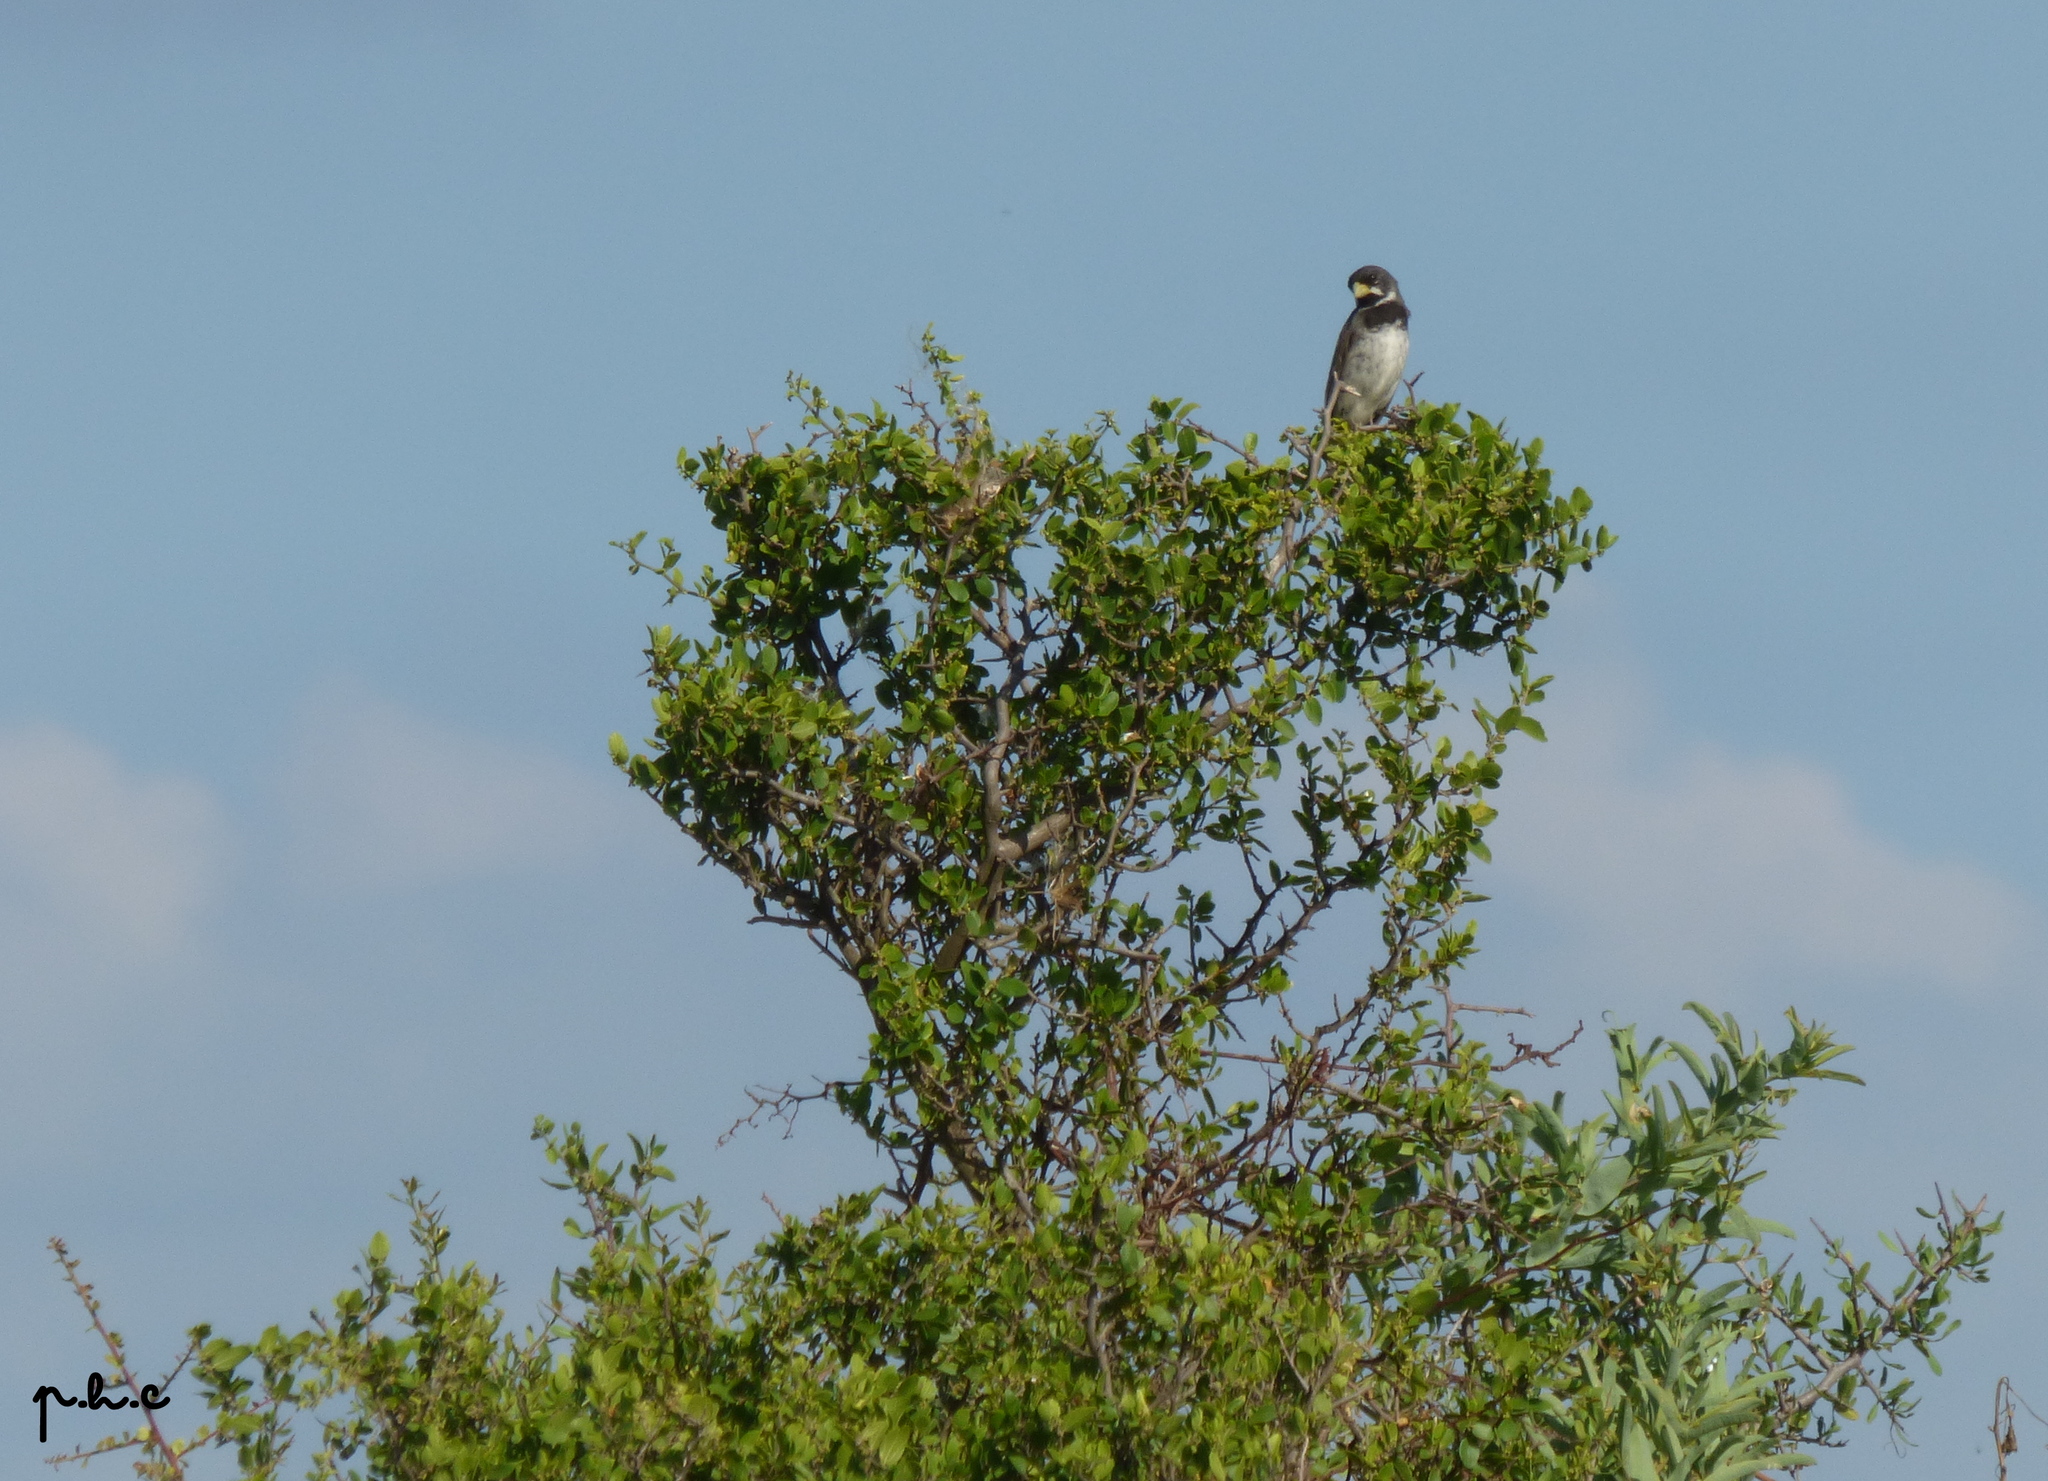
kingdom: Animalia
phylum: Chordata
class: Aves
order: Passeriformes
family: Thraupidae
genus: Sporophila
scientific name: Sporophila caerulescens
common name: Double-collared seedeater
